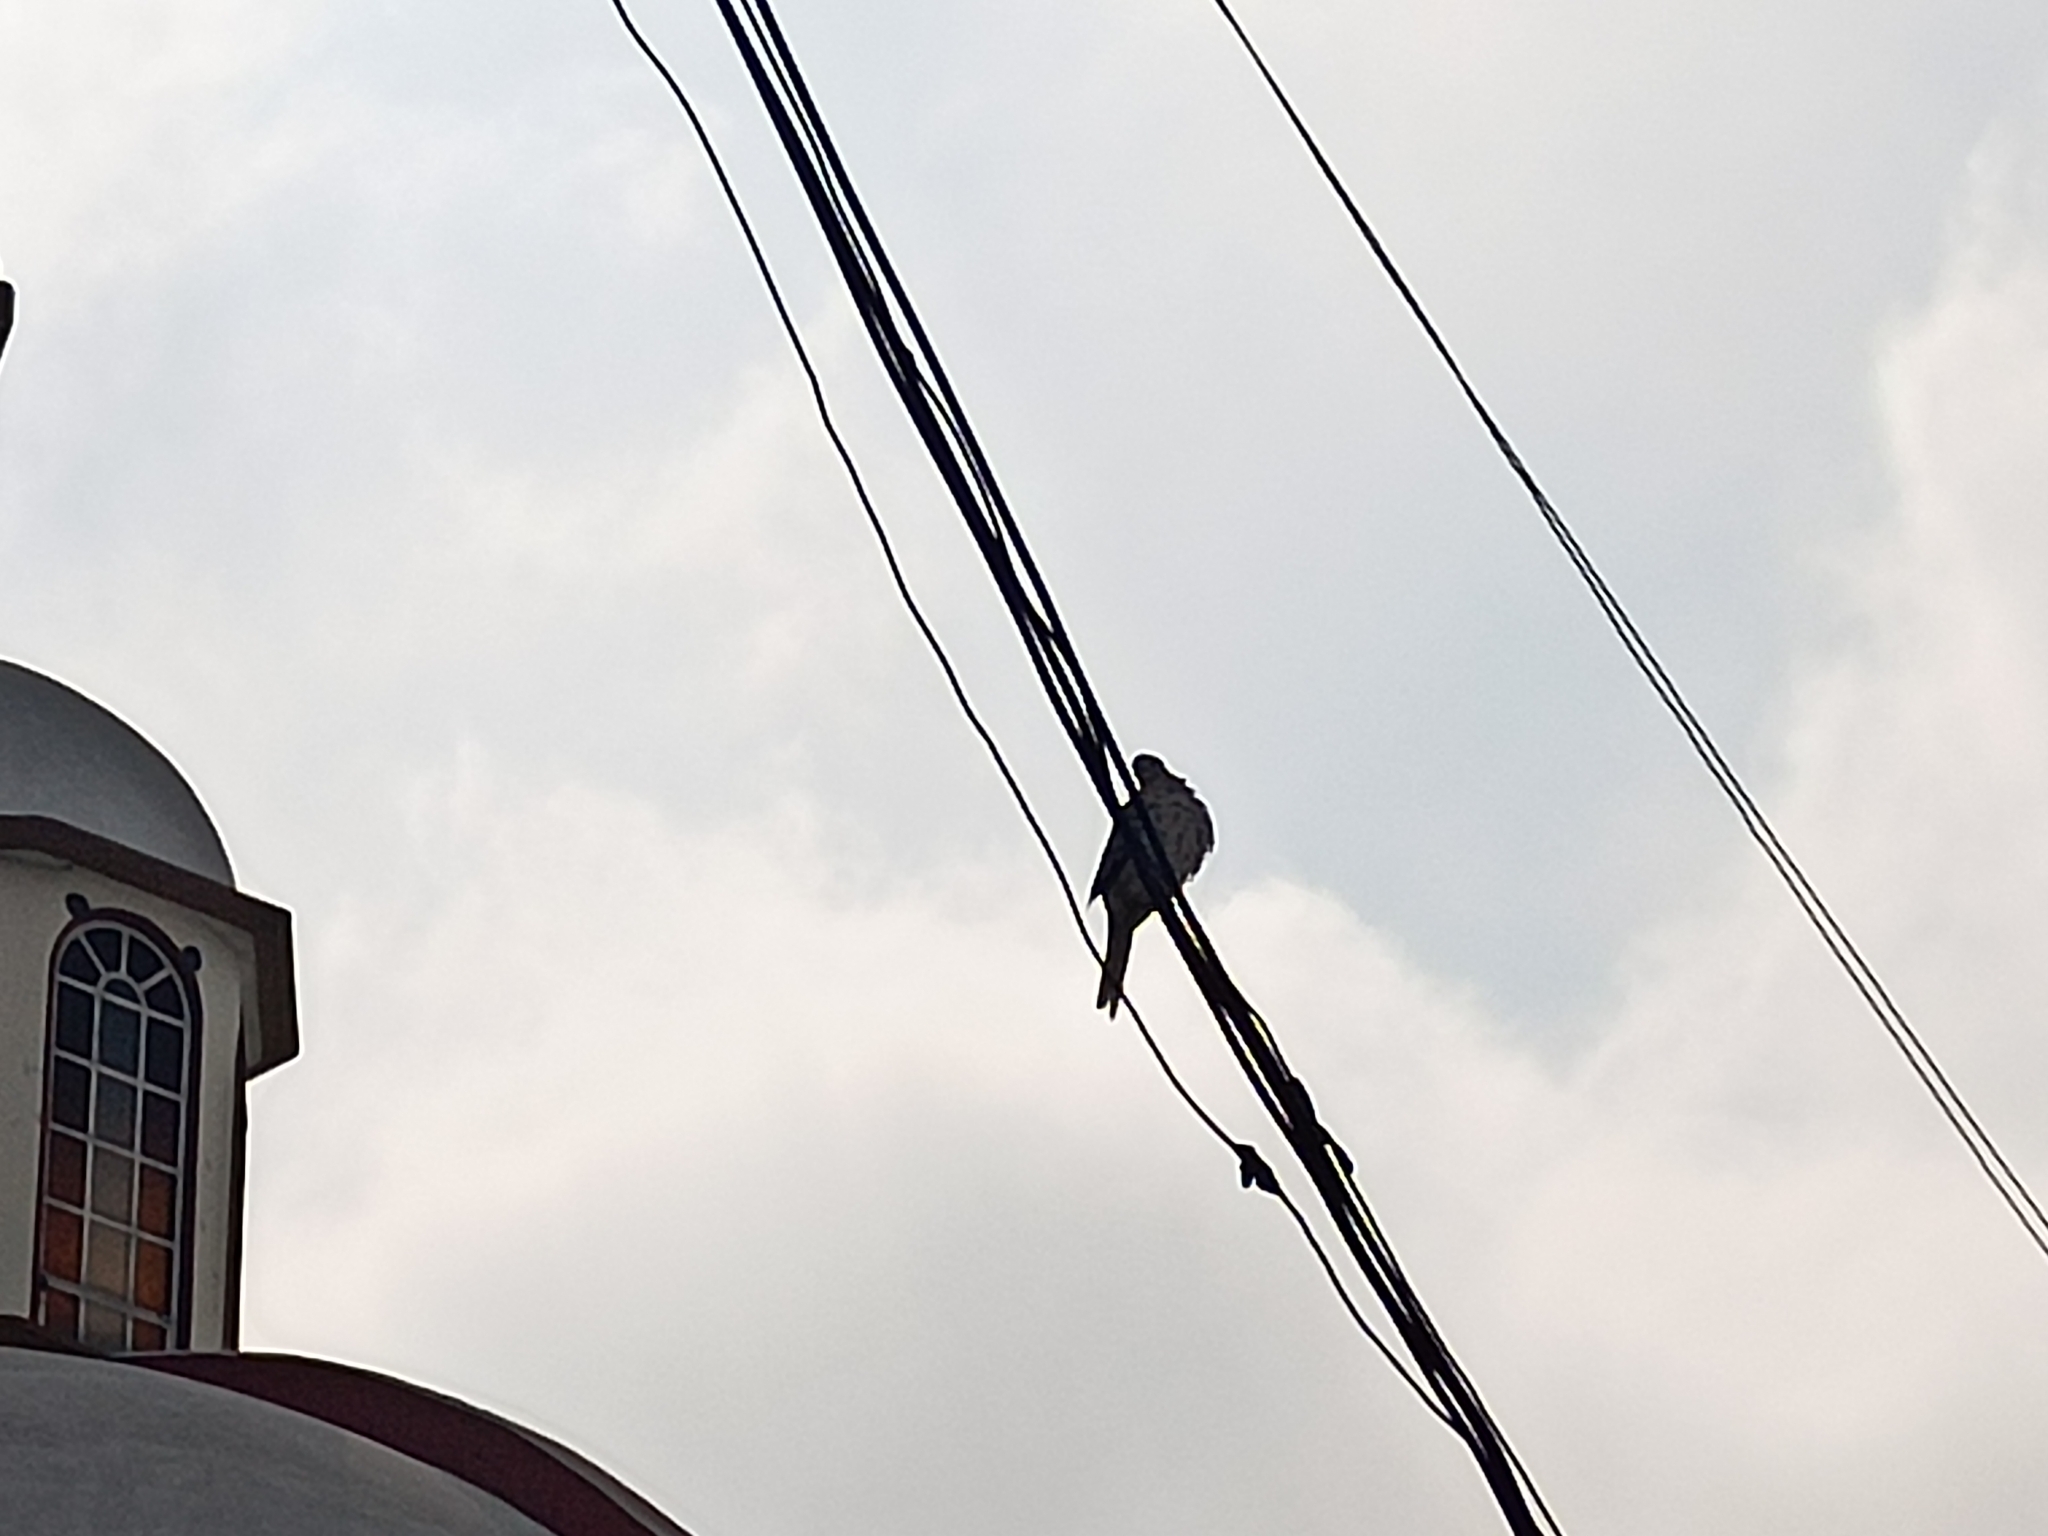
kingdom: Animalia
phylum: Chordata
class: Aves
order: Columbiformes
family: Columbidae
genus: Columbina
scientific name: Columbina inca
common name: Inca dove
